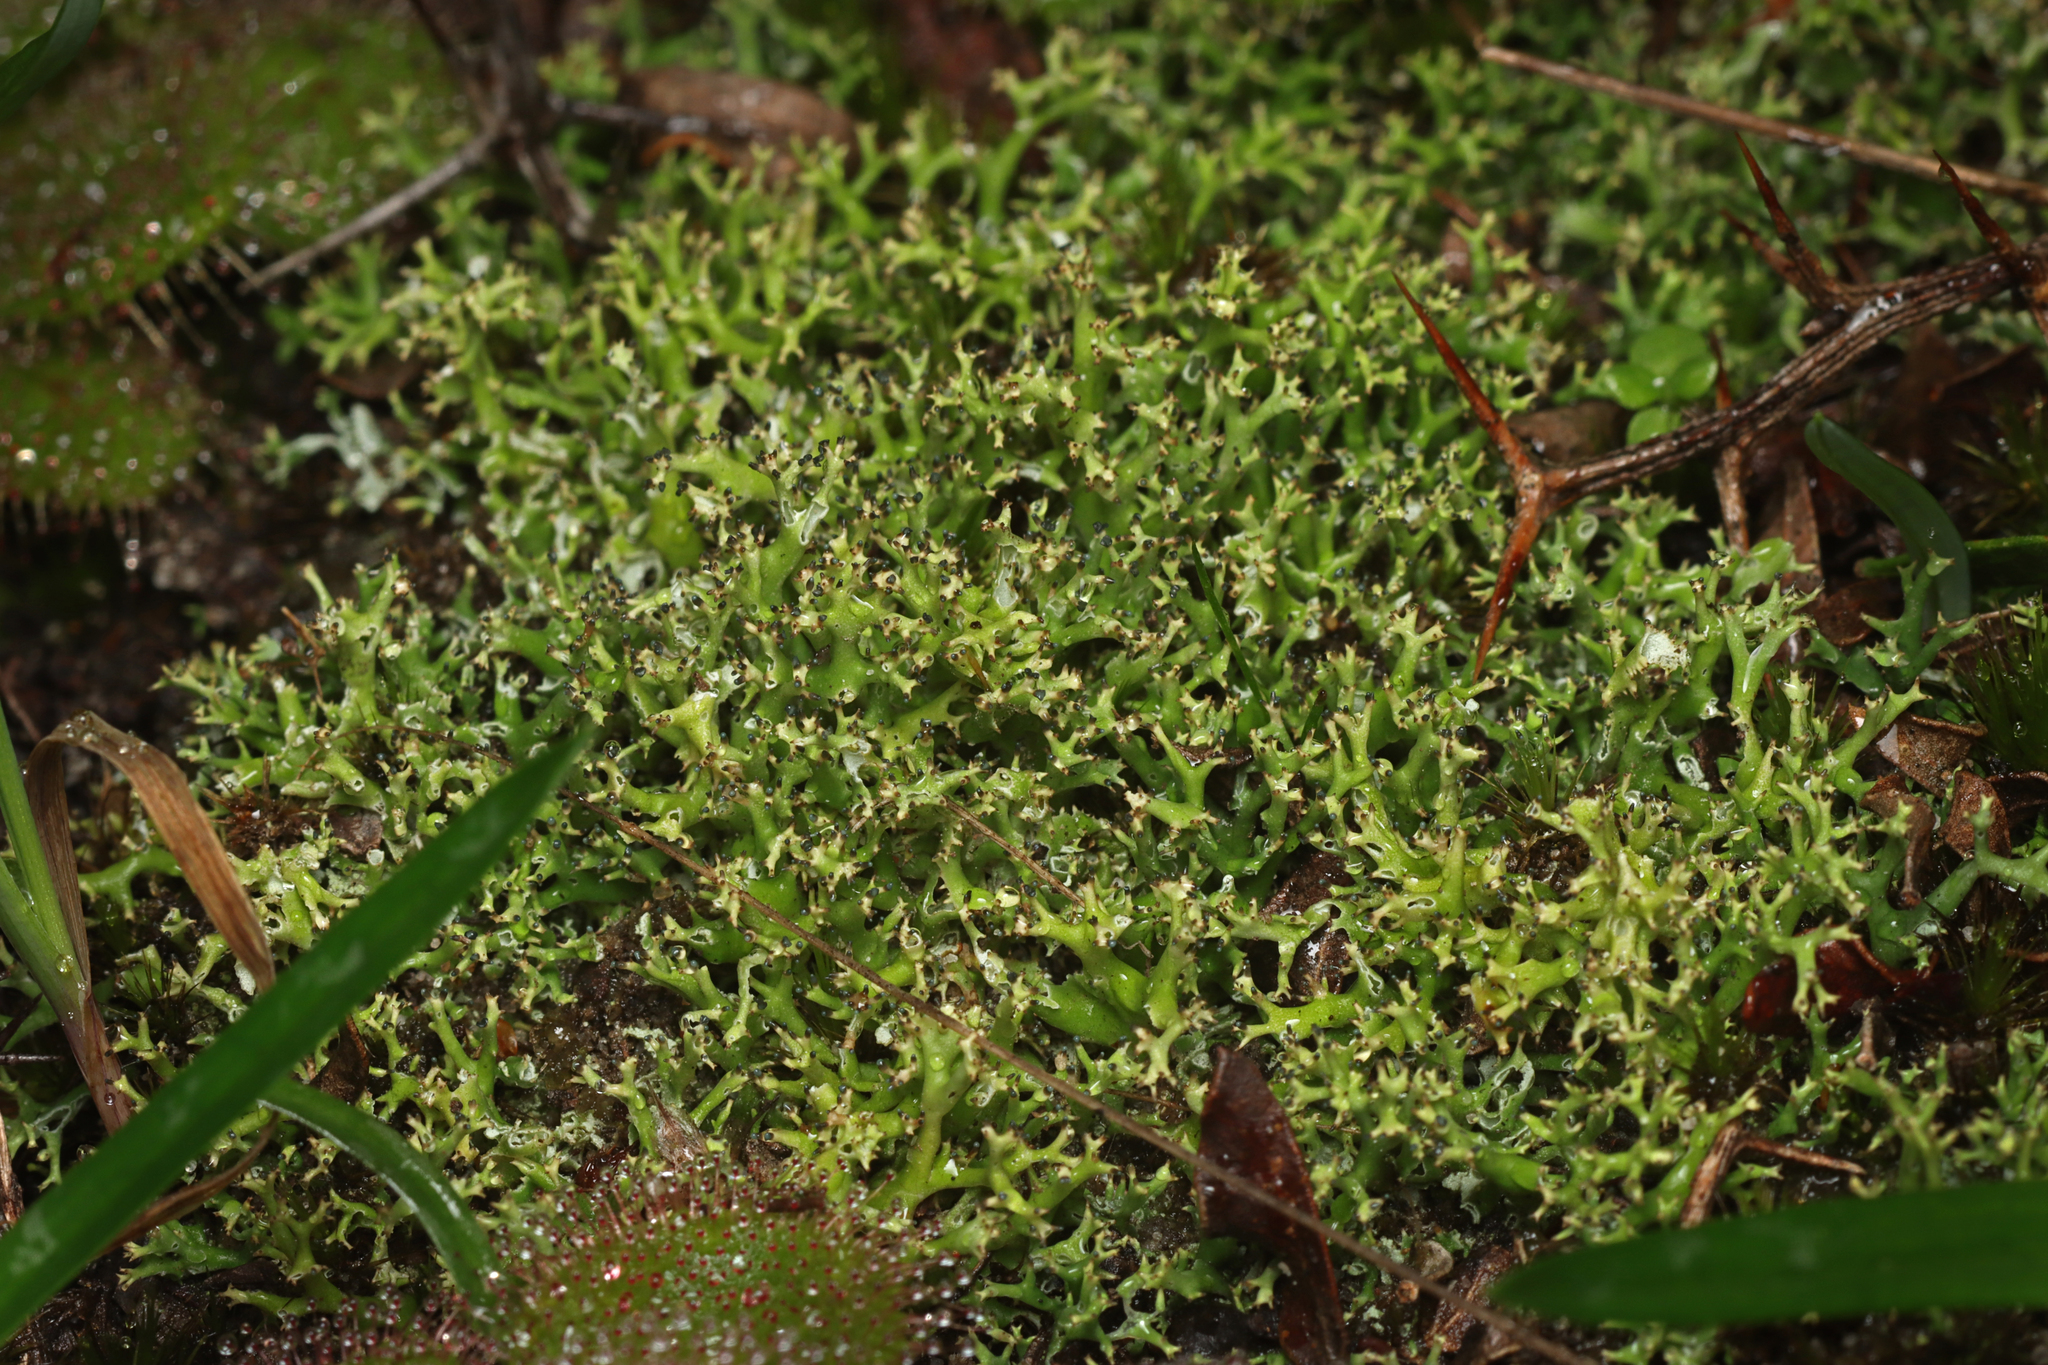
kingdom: Fungi
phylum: Ascomycota
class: Lecanoromycetes
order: Lecanorales
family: Cladoniaceae
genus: Cladia
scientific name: Cladia aggregata
